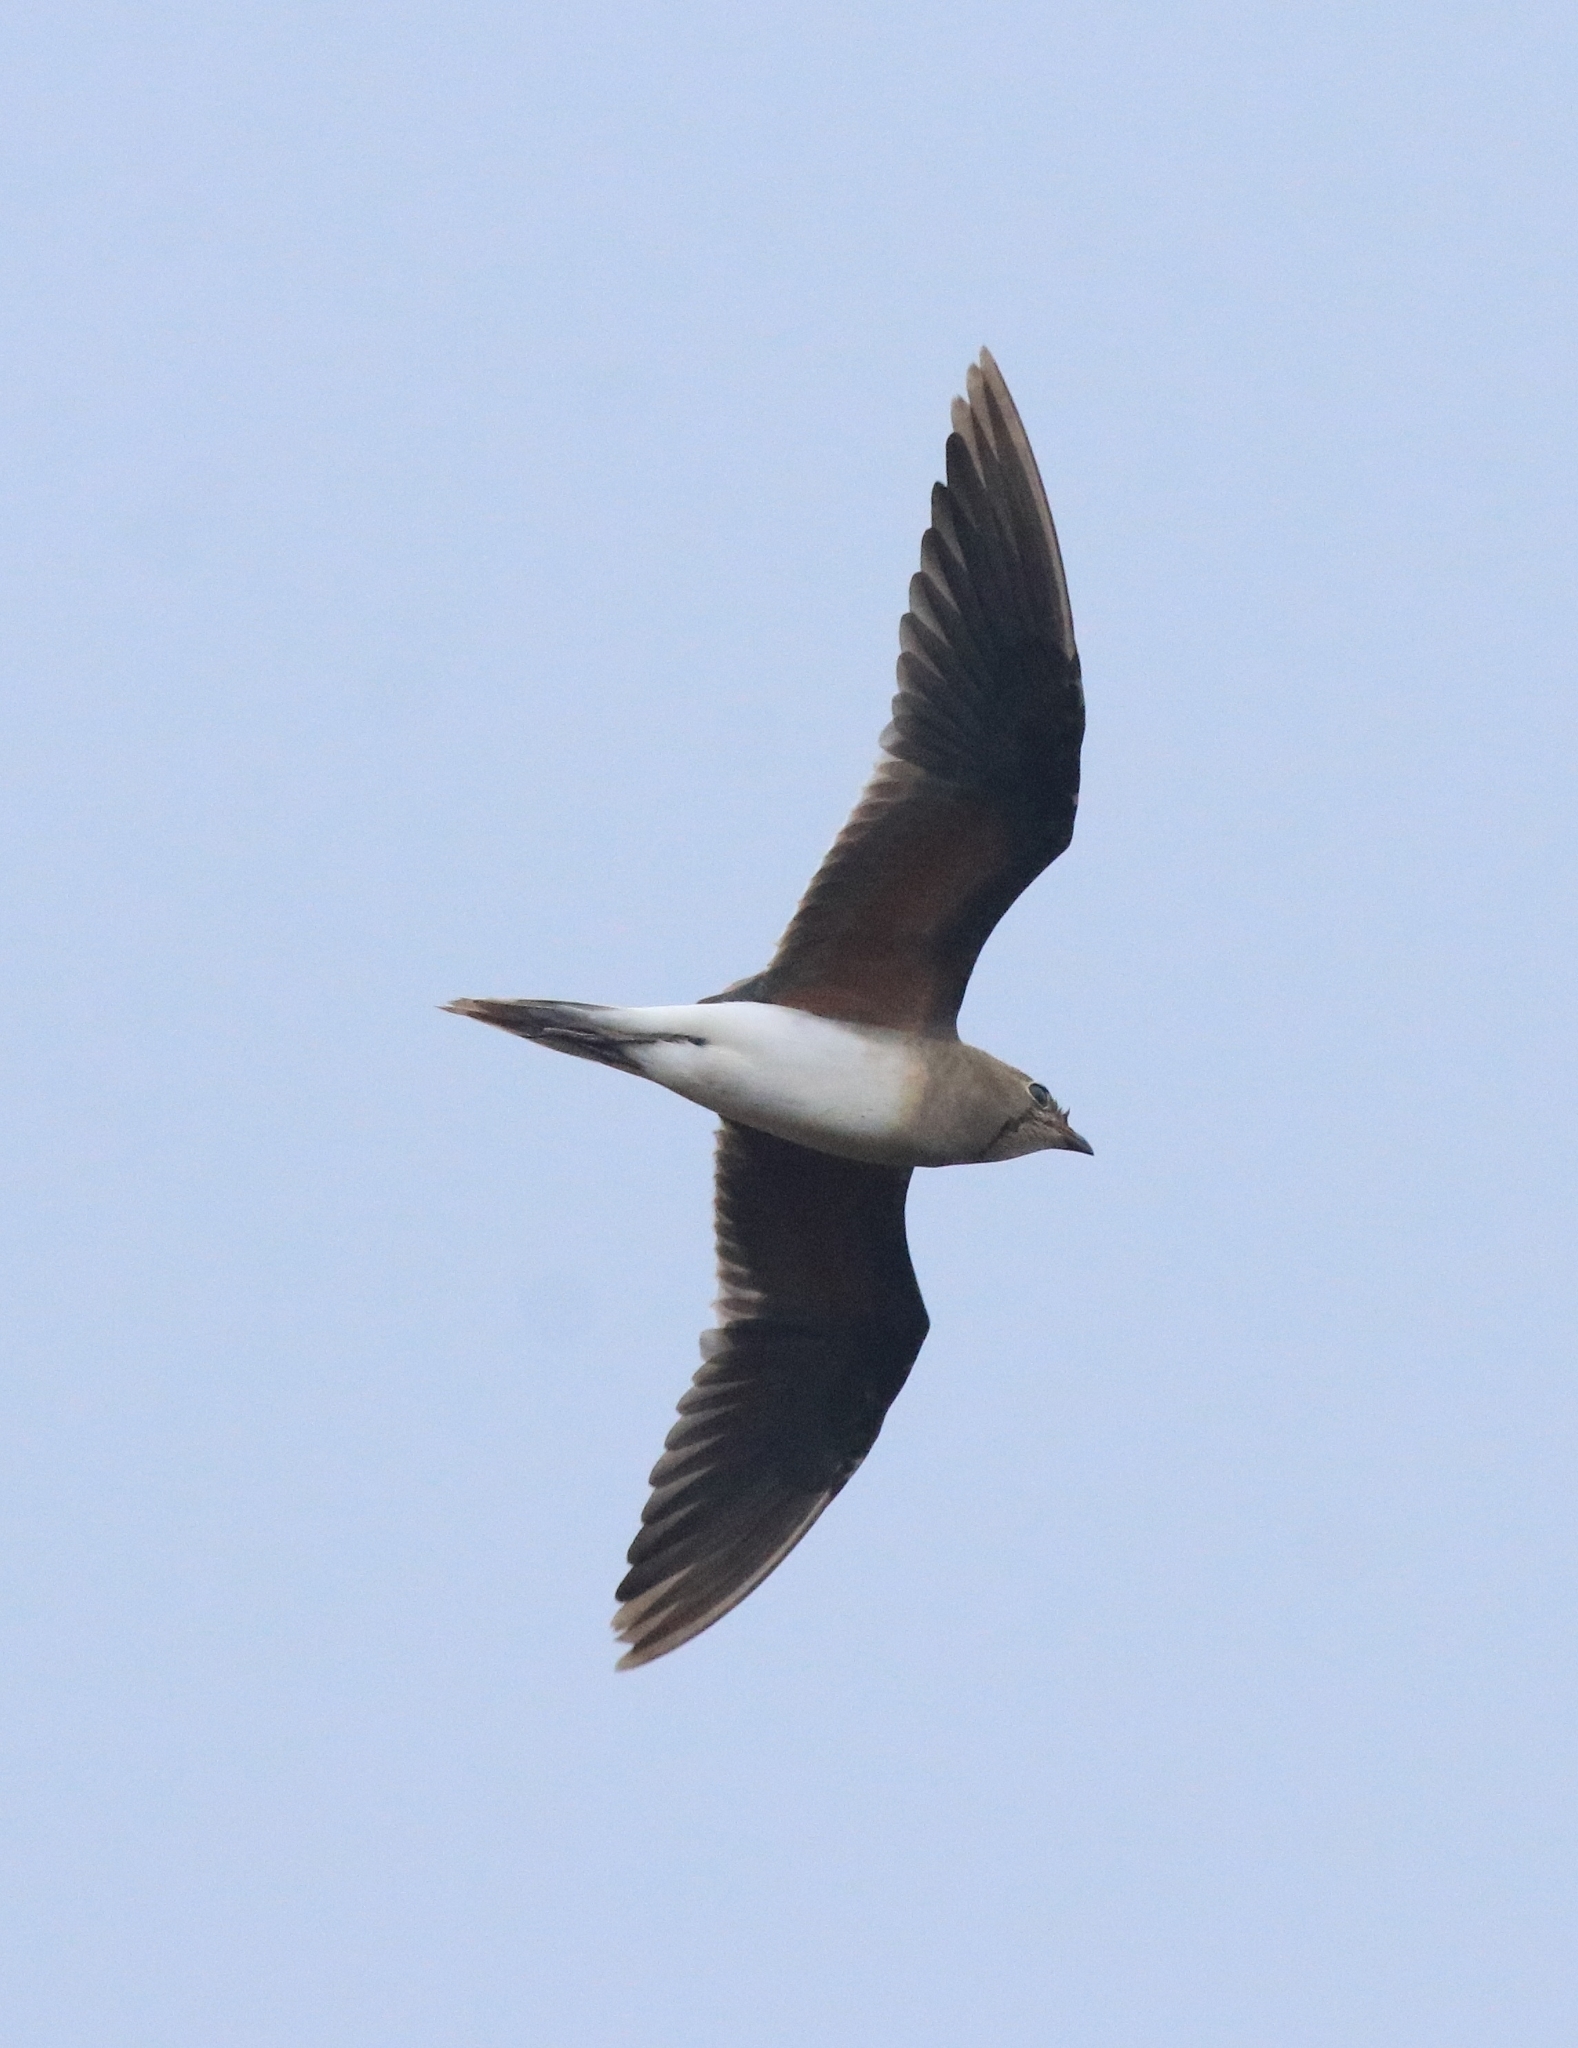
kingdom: Animalia
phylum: Chordata
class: Aves
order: Charadriiformes
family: Glareolidae
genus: Glareola
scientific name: Glareola pratincola
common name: Collared pratincole
